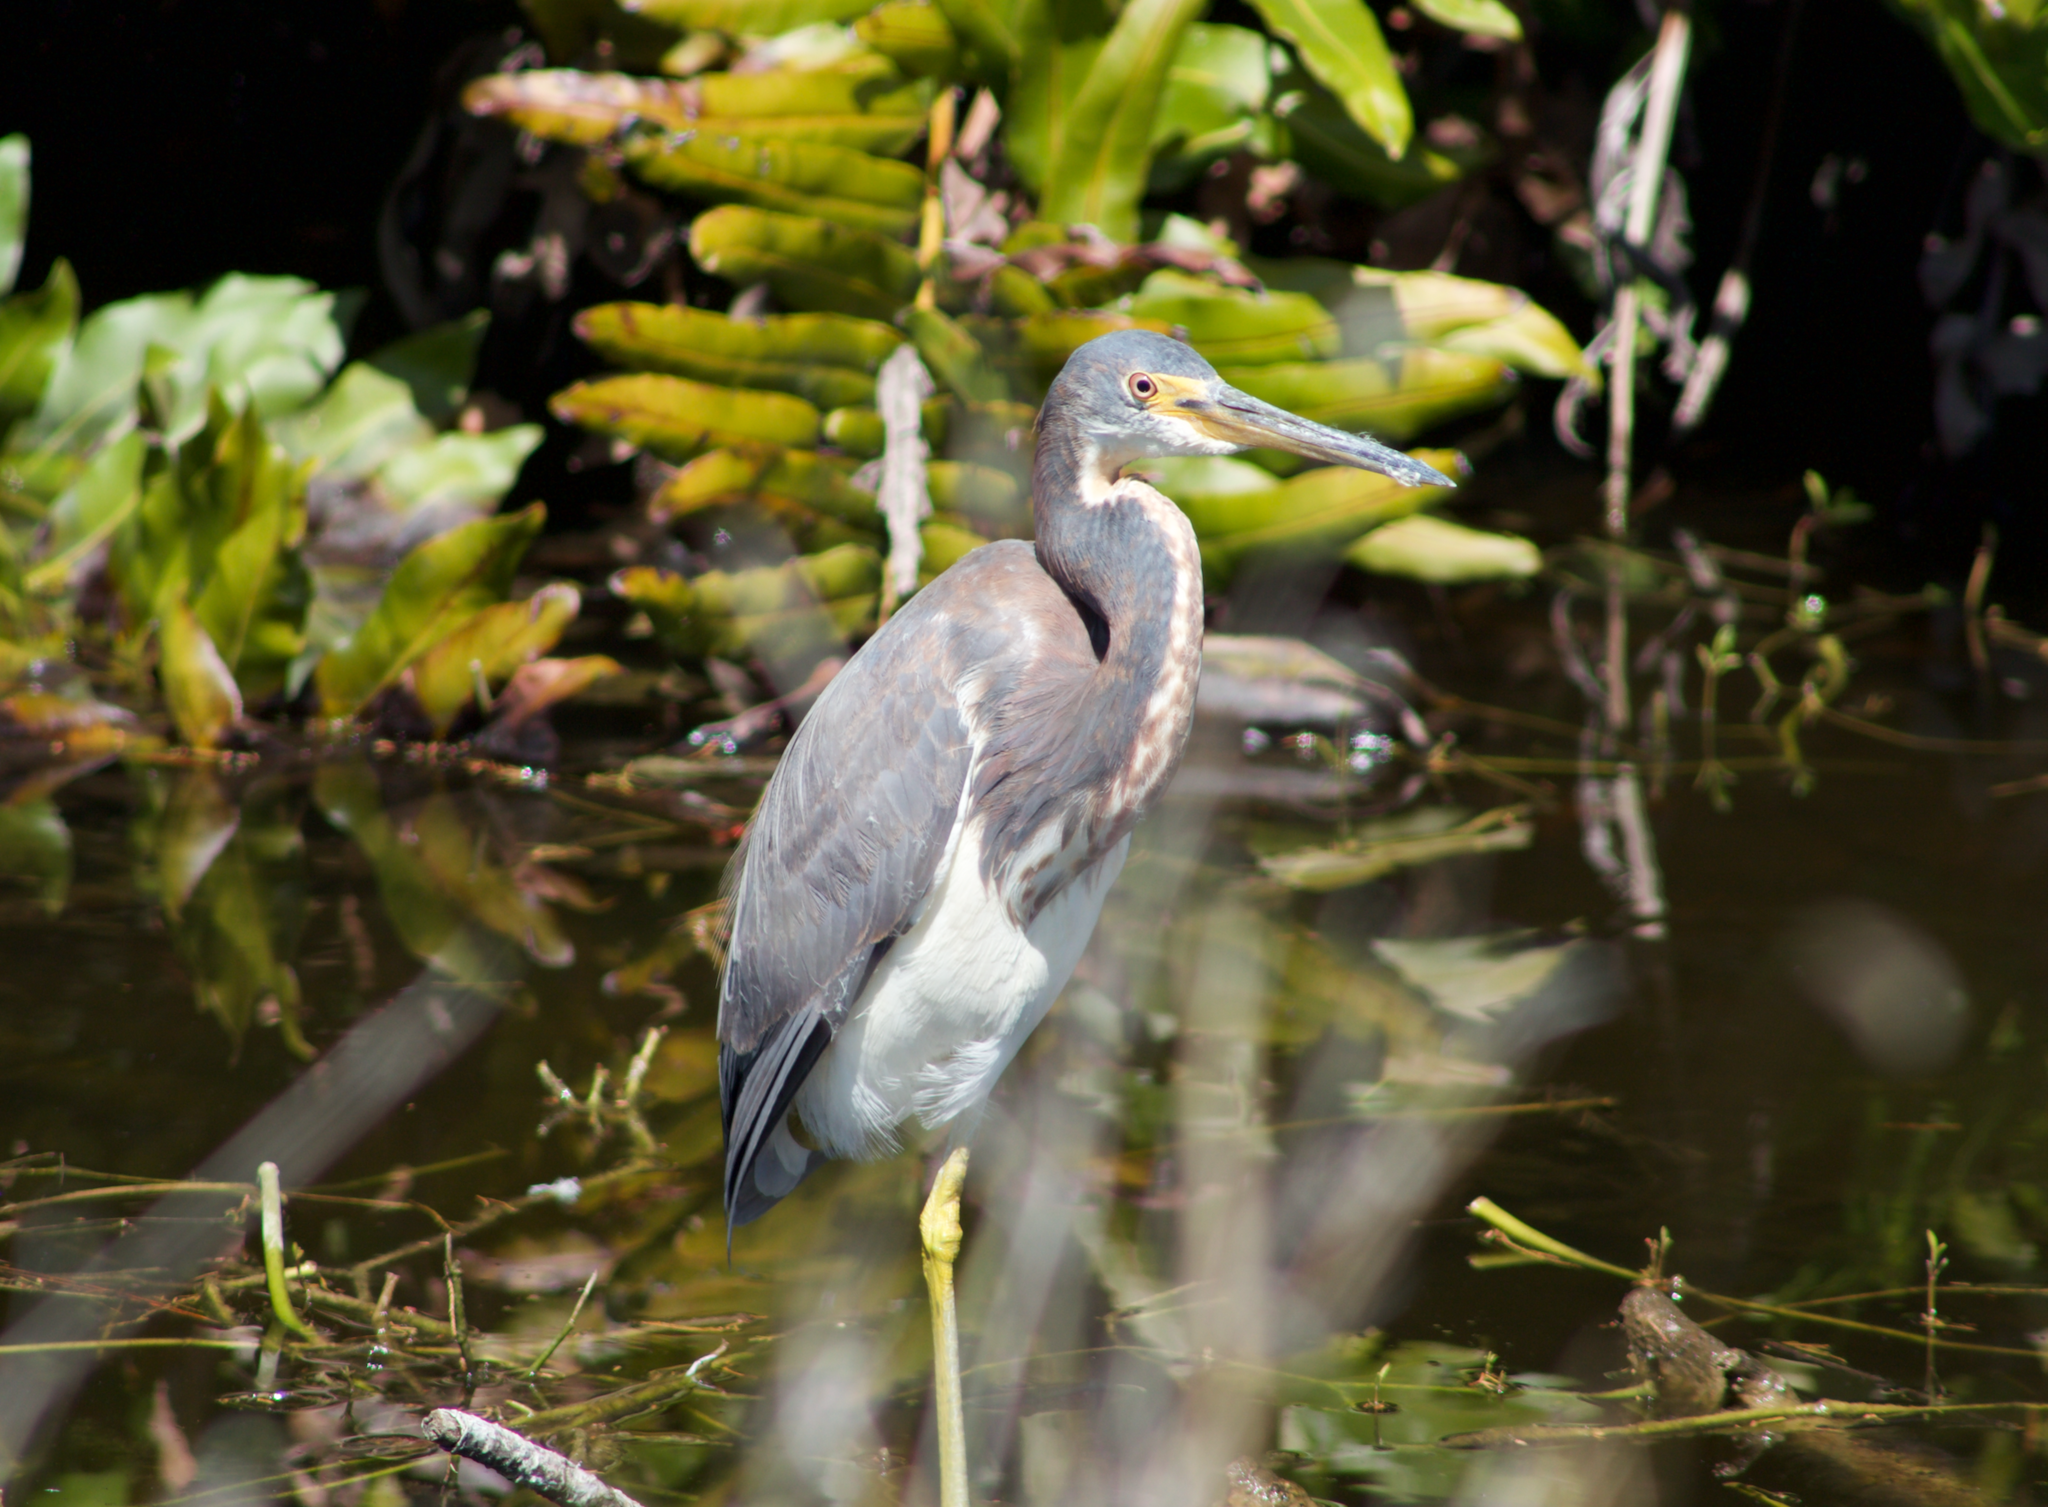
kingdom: Animalia
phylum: Chordata
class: Aves
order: Pelecaniformes
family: Ardeidae
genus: Egretta
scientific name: Egretta tricolor
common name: Tricolored heron
